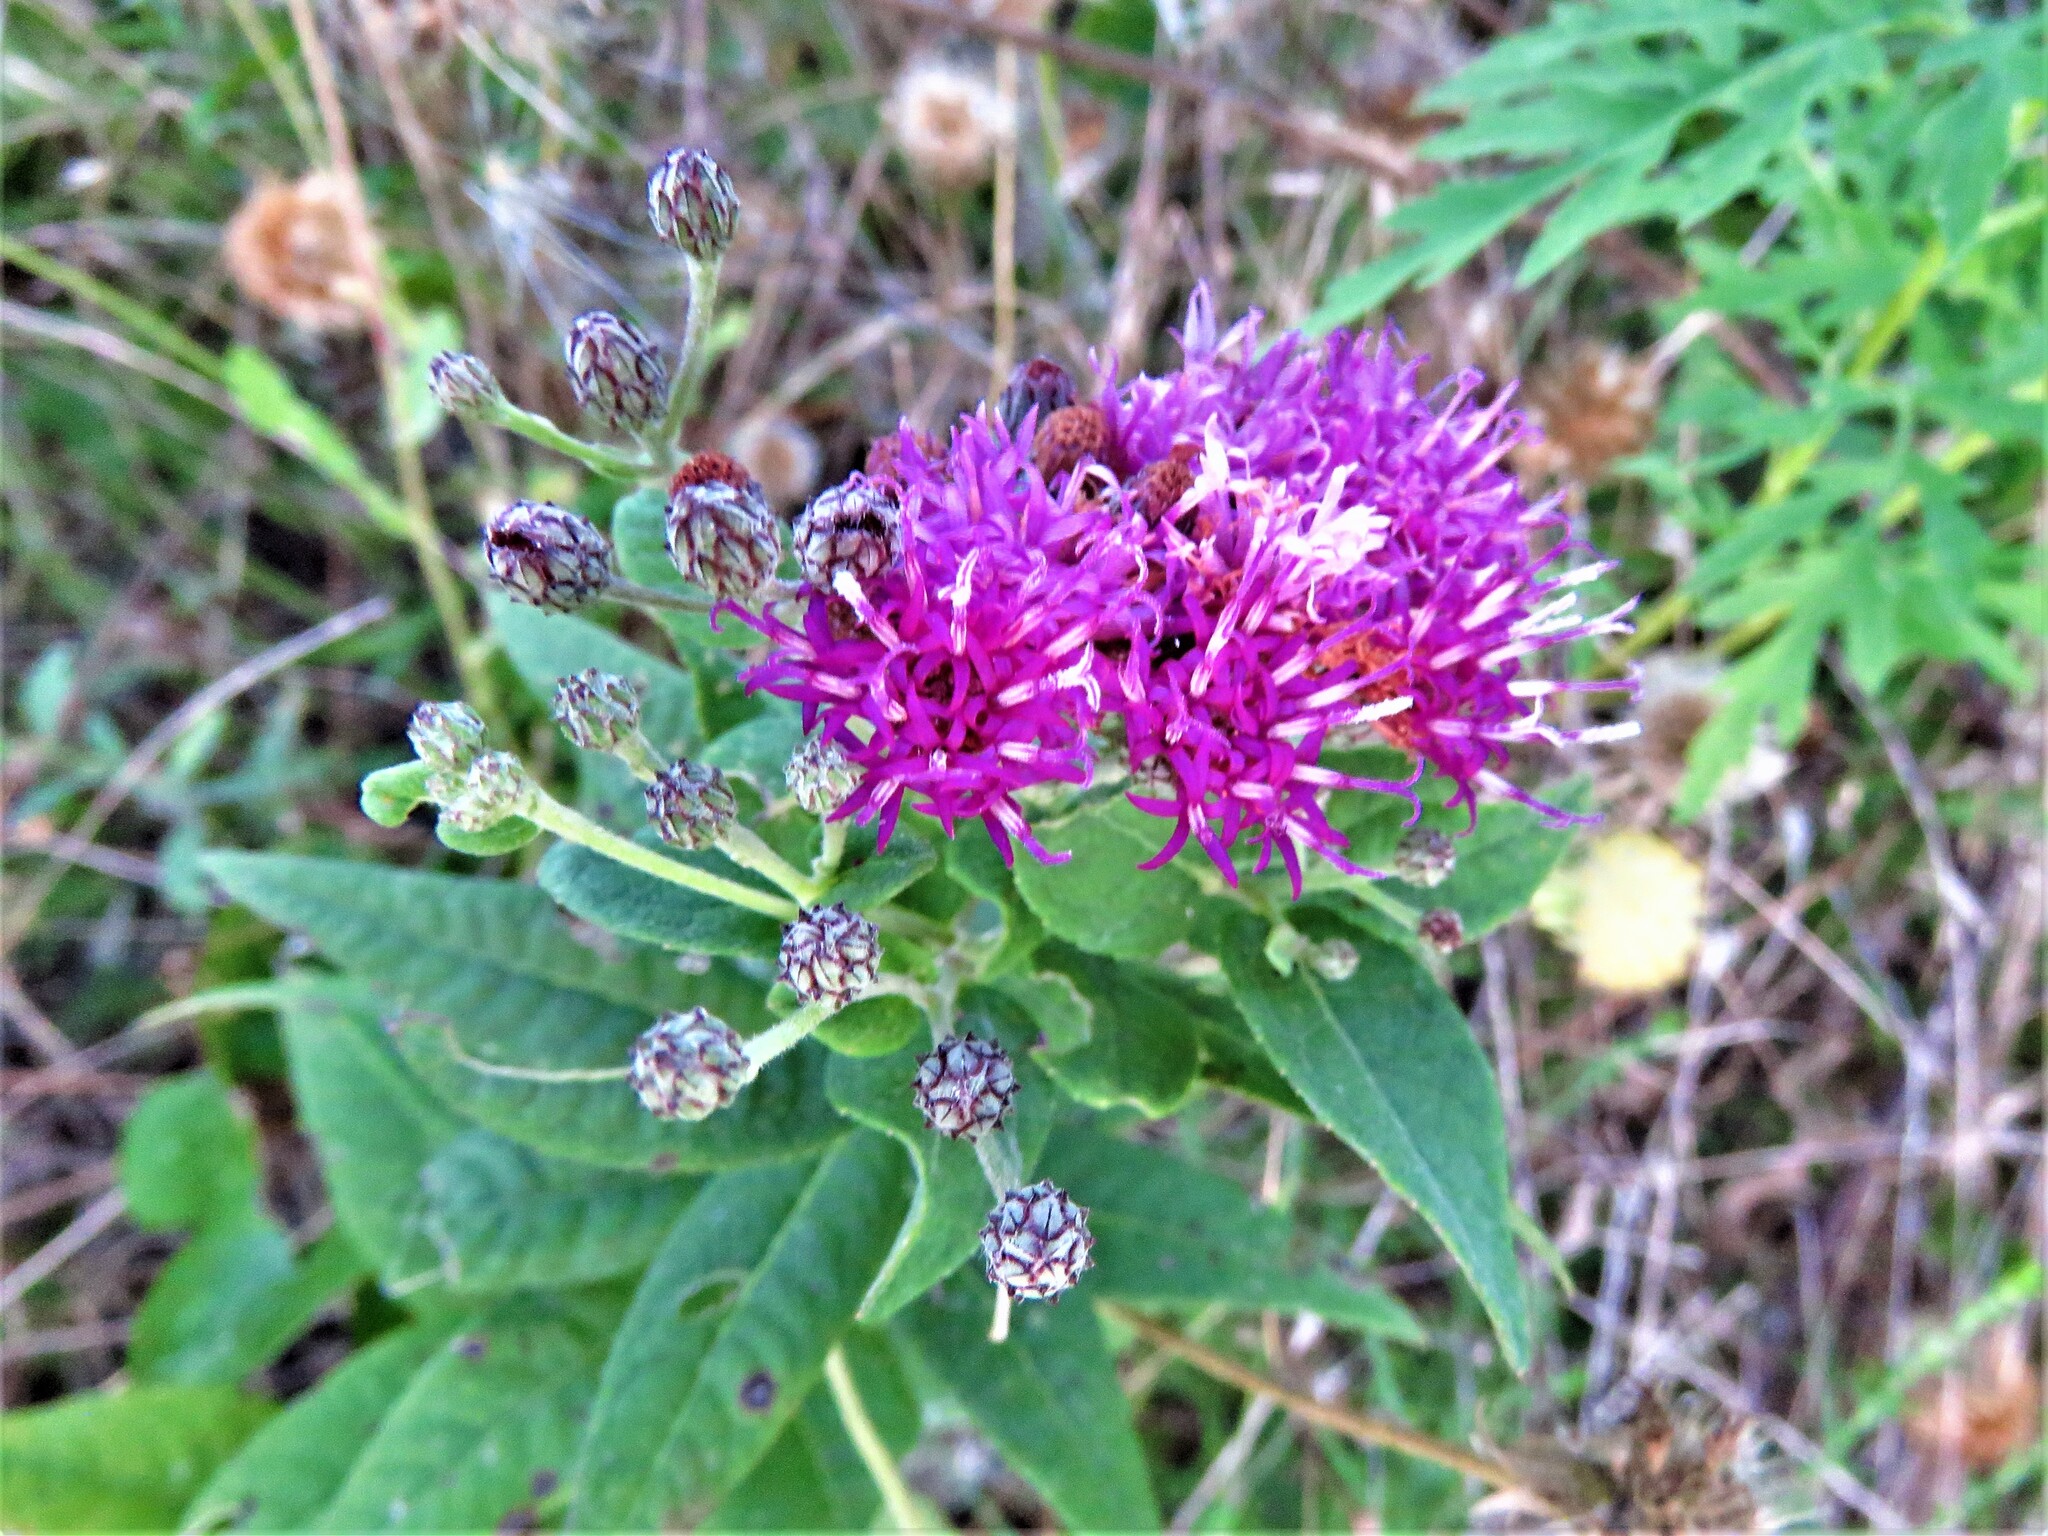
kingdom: Plantae
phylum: Tracheophyta
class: Magnoliopsida
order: Asterales
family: Asteraceae
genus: Vernonia
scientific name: Vernonia baldwinii
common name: Western ironweed
